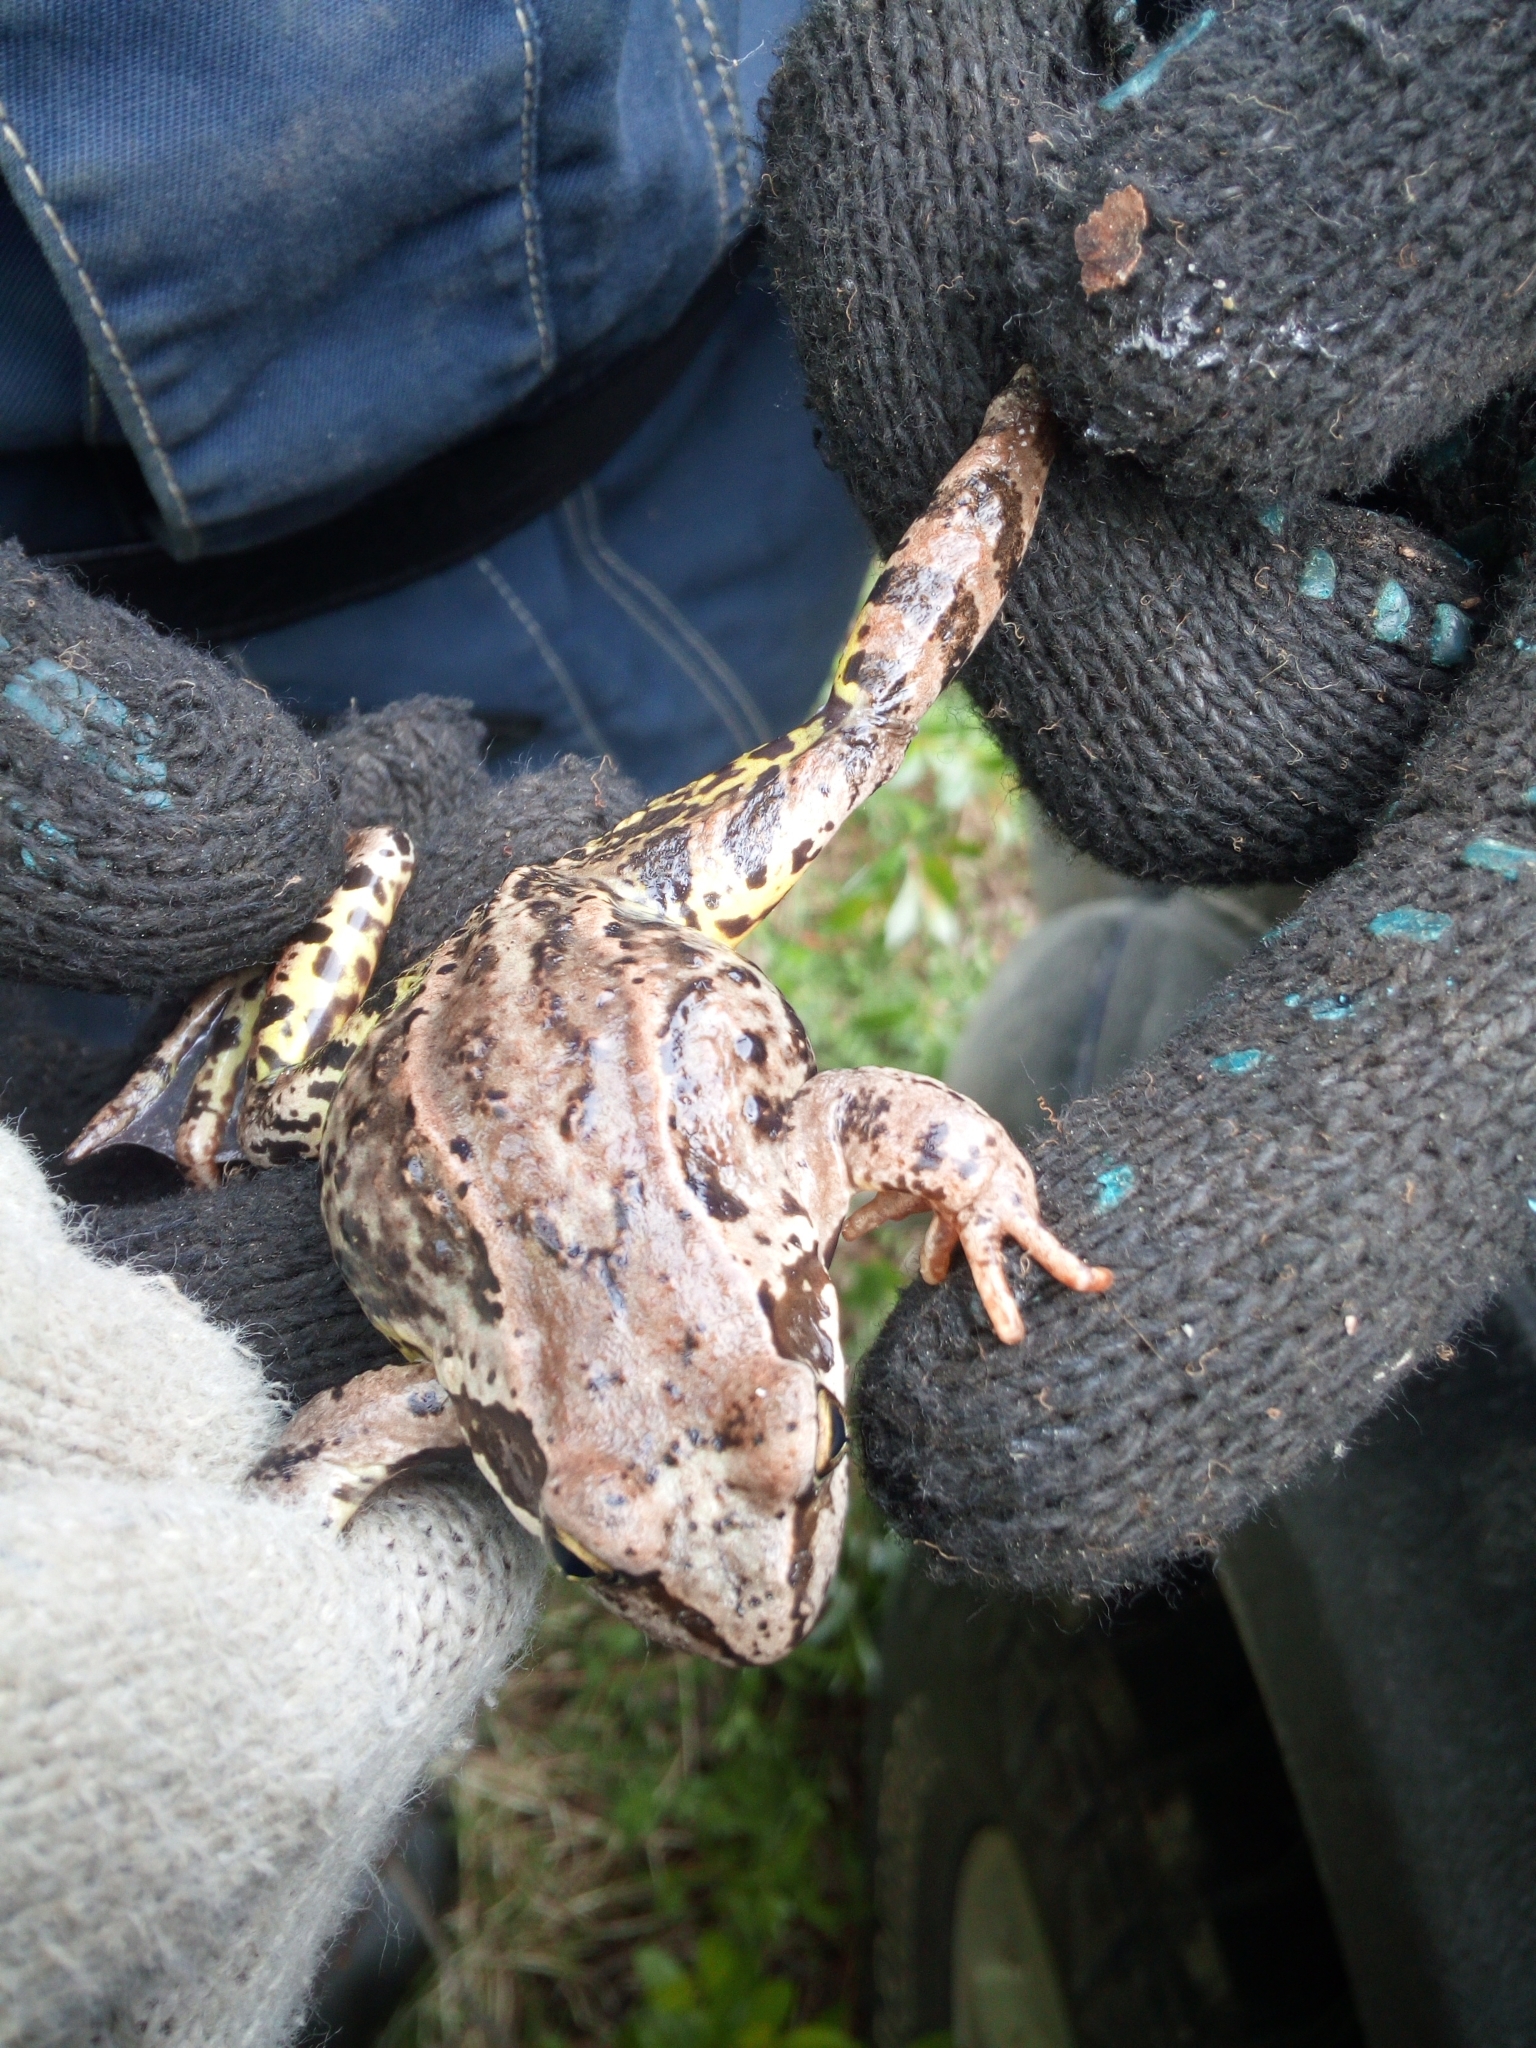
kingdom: Animalia
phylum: Chordata
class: Amphibia
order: Anura
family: Ranidae
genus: Rana
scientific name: Rana temporaria
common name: Common frog
